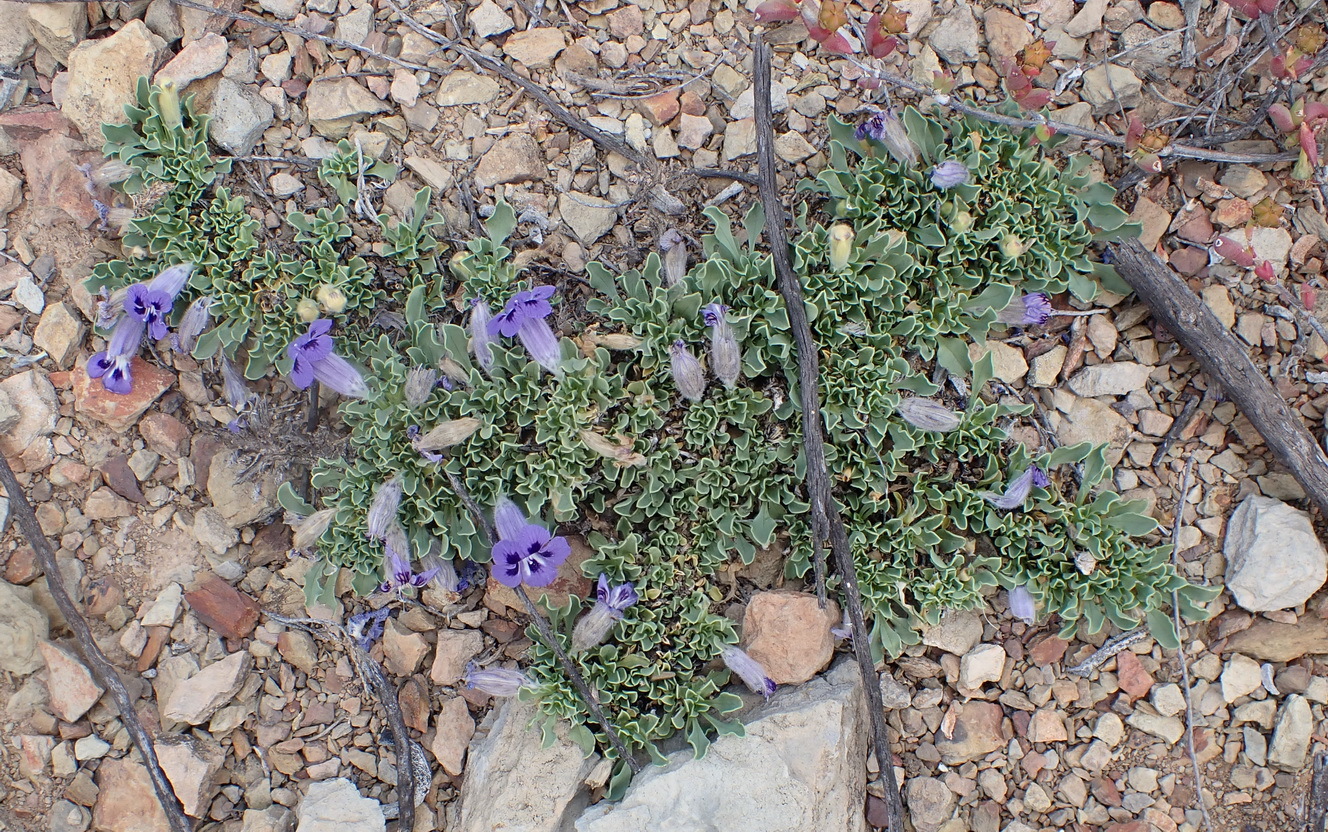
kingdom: Plantae
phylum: Tracheophyta
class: Magnoliopsida
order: Lamiales
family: Scrophulariaceae
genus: Aptosimum
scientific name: Aptosimum indivisum
